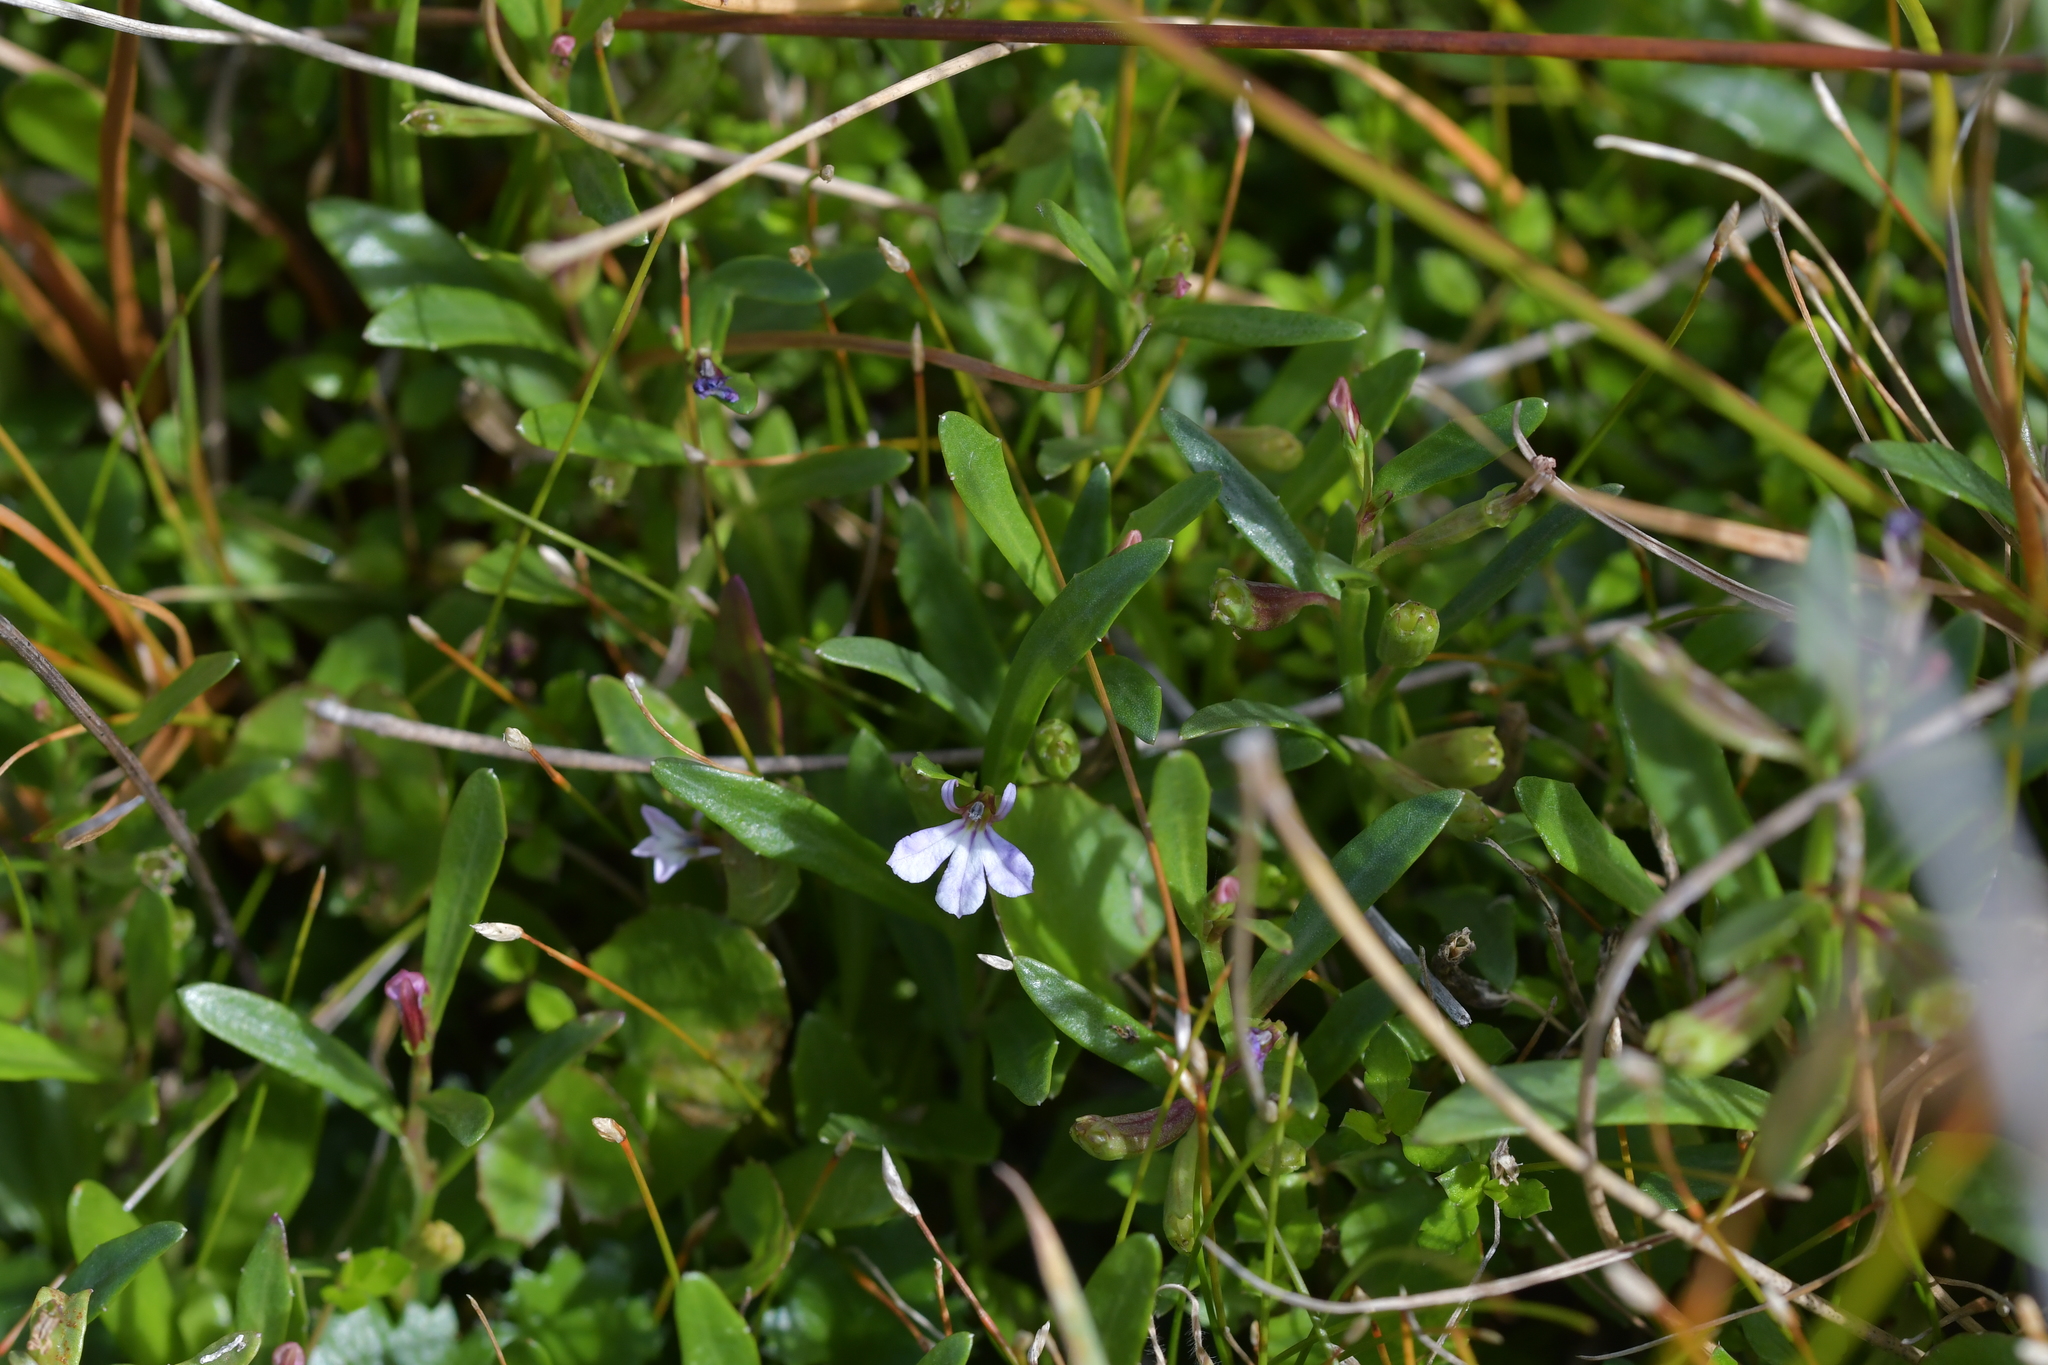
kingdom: Plantae
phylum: Tracheophyta
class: Magnoliopsida
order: Asterales
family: Campanulaceae
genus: Lobelia
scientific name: Lobelia anceps
